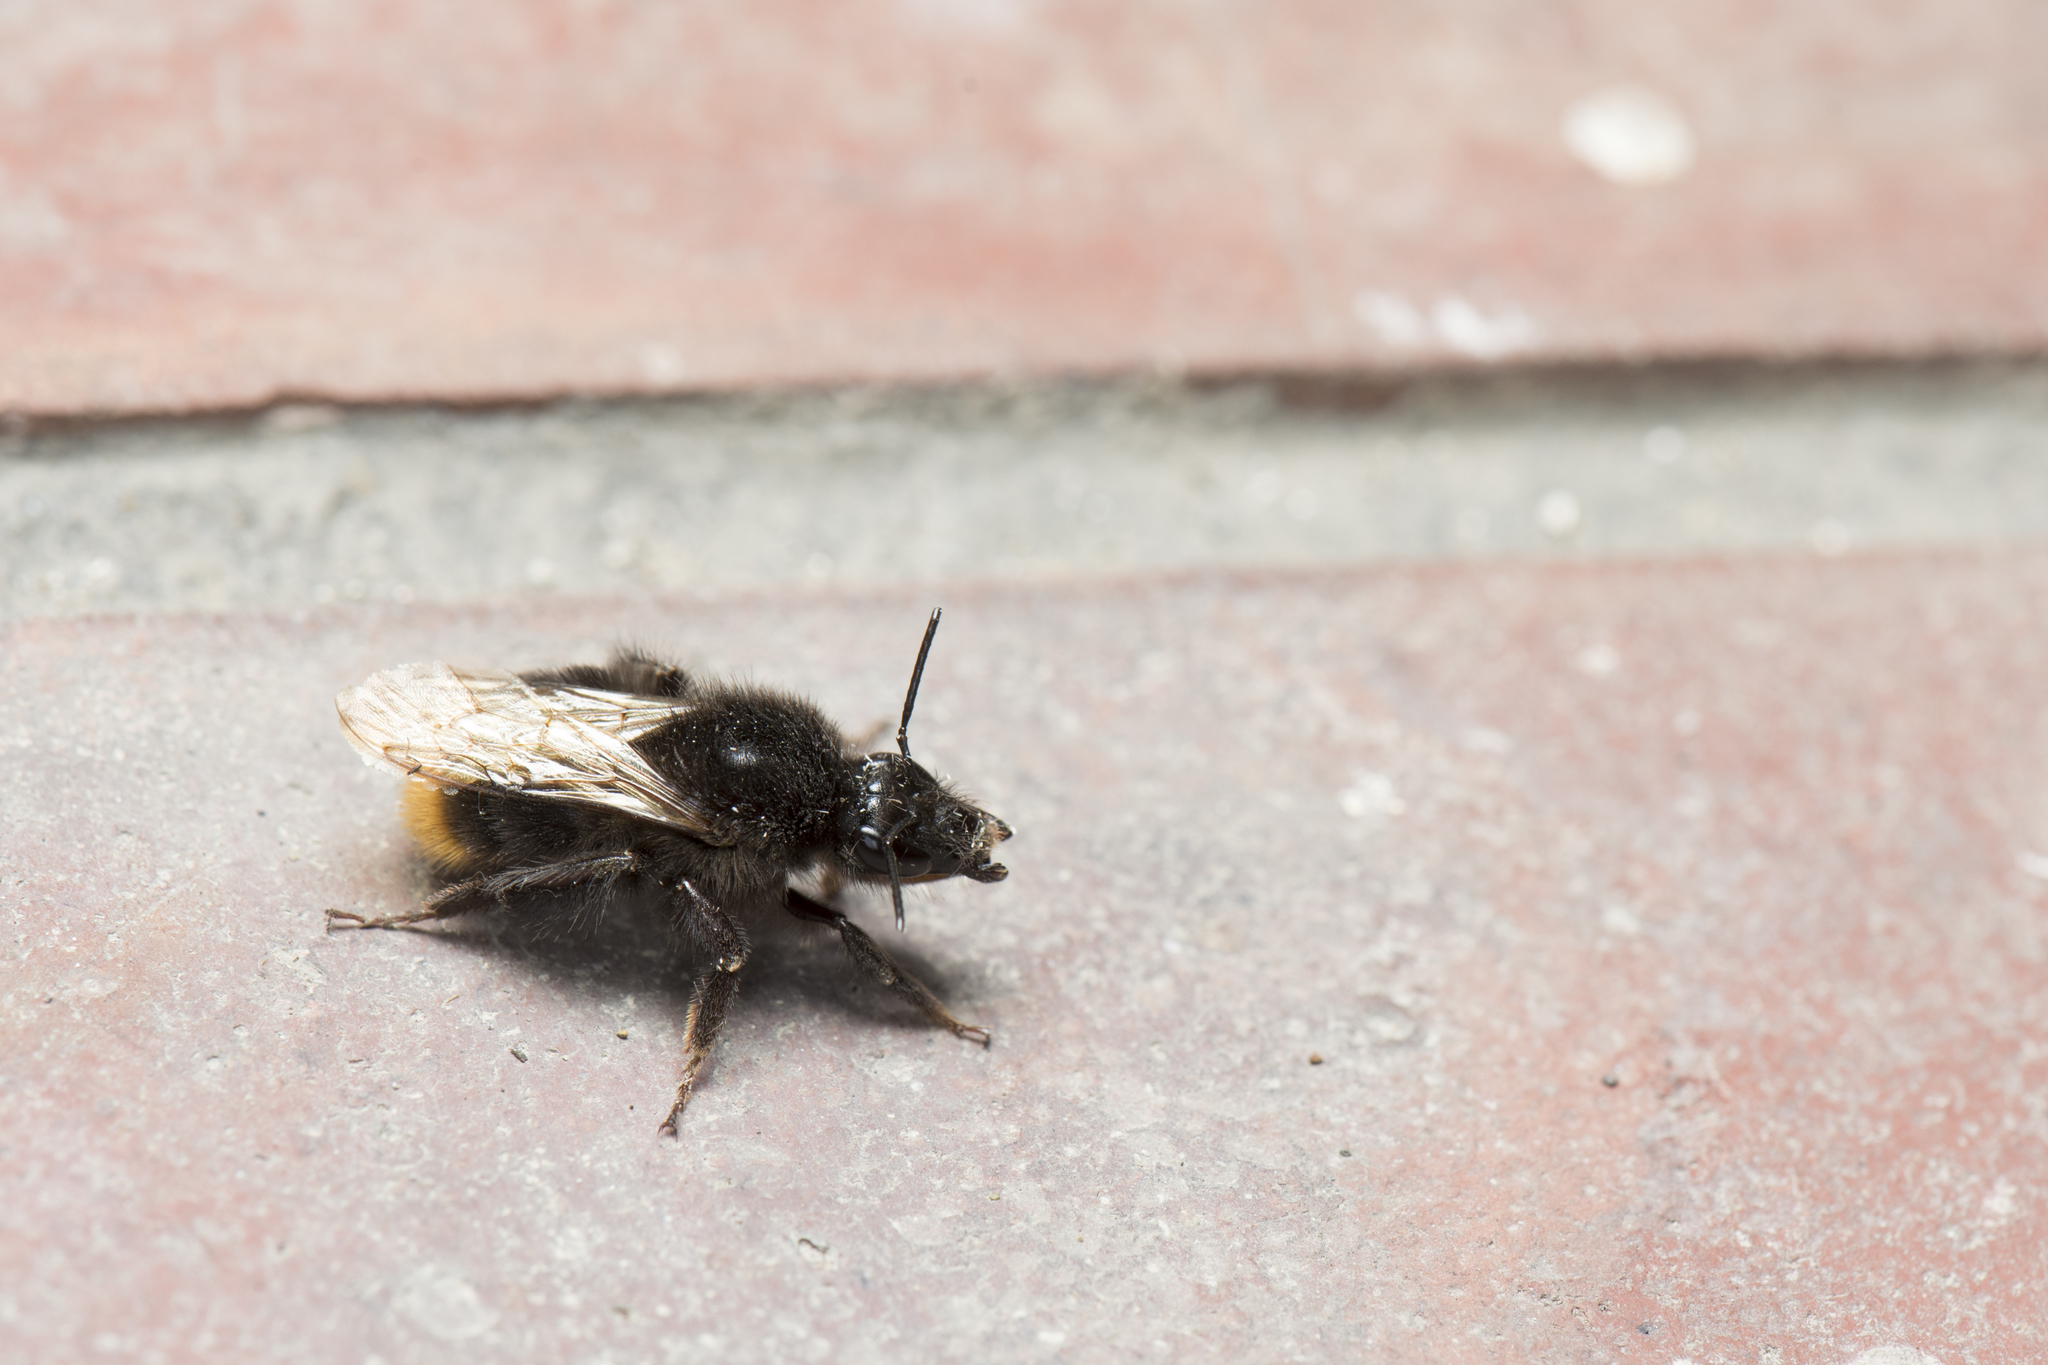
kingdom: Animalia
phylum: Arthropoda
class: Insecta
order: Hymenoptera
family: Apidae
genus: Bombus
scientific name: Bombus trifasciatus
